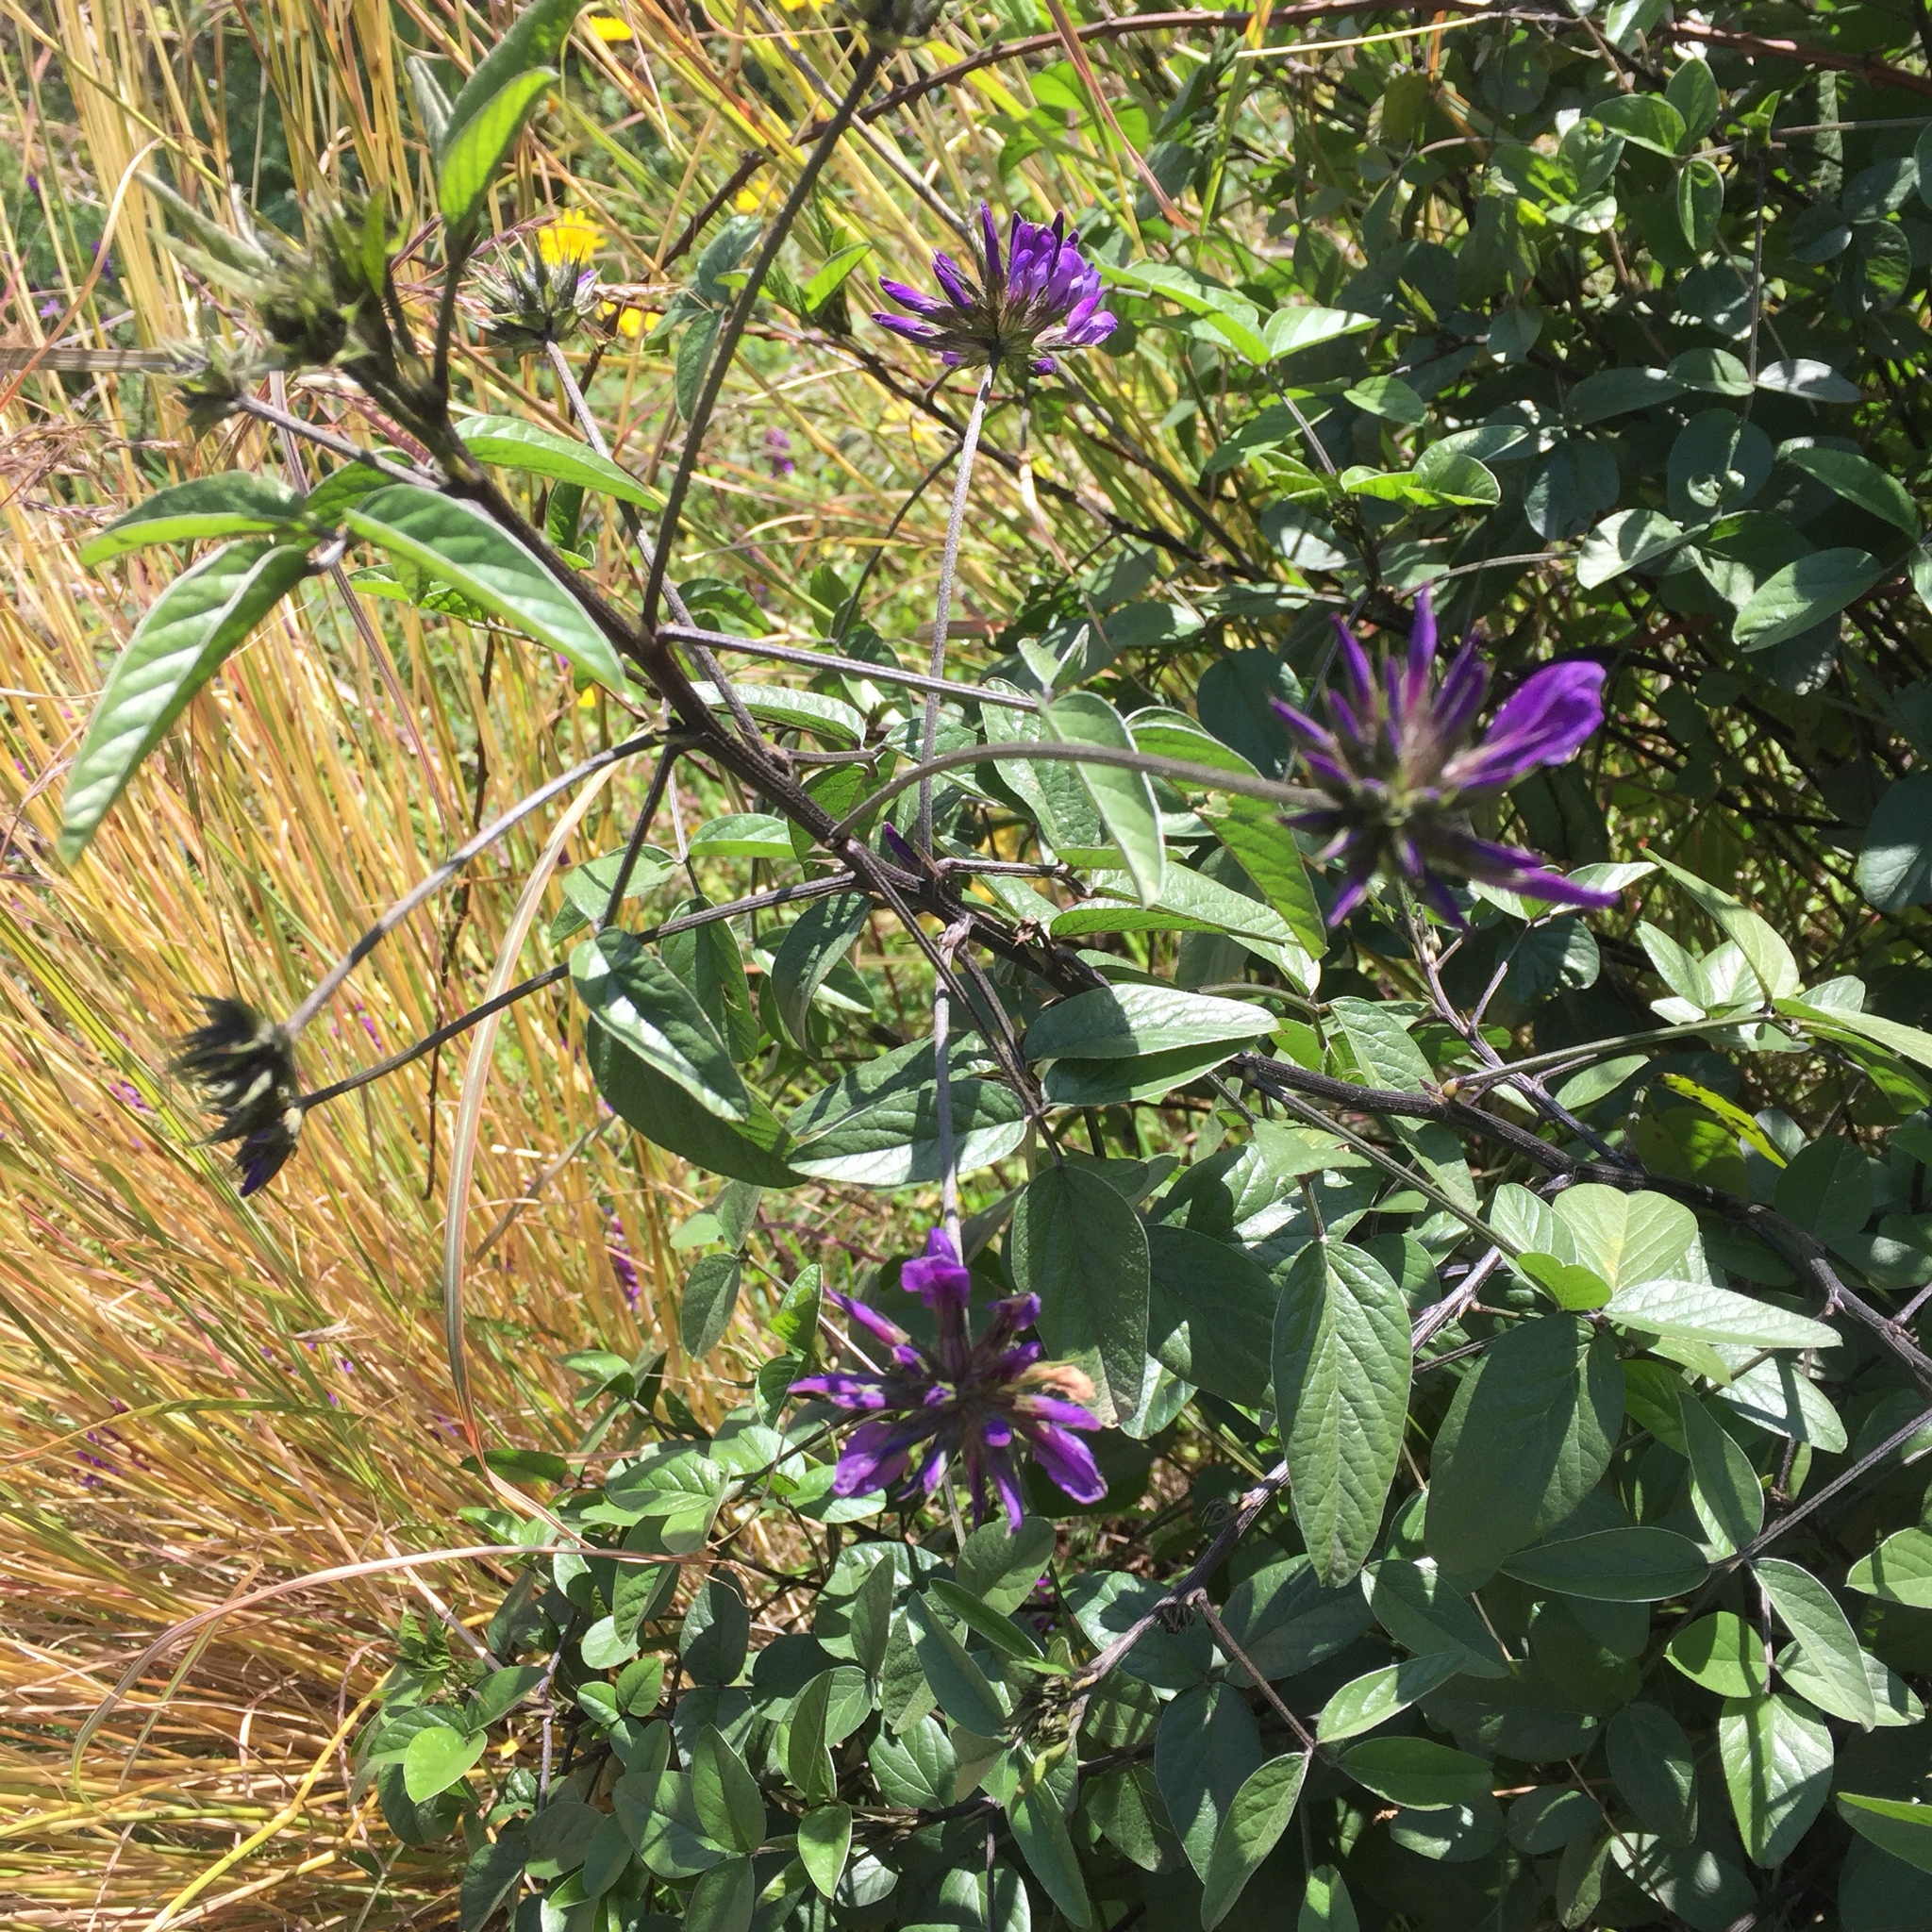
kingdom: Plantae
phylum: Tracheophyta
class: Magnoliopsida
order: Fabales
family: Fabaceae
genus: Bituminaria
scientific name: Bituminaria bituminosa
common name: Arabian pea
